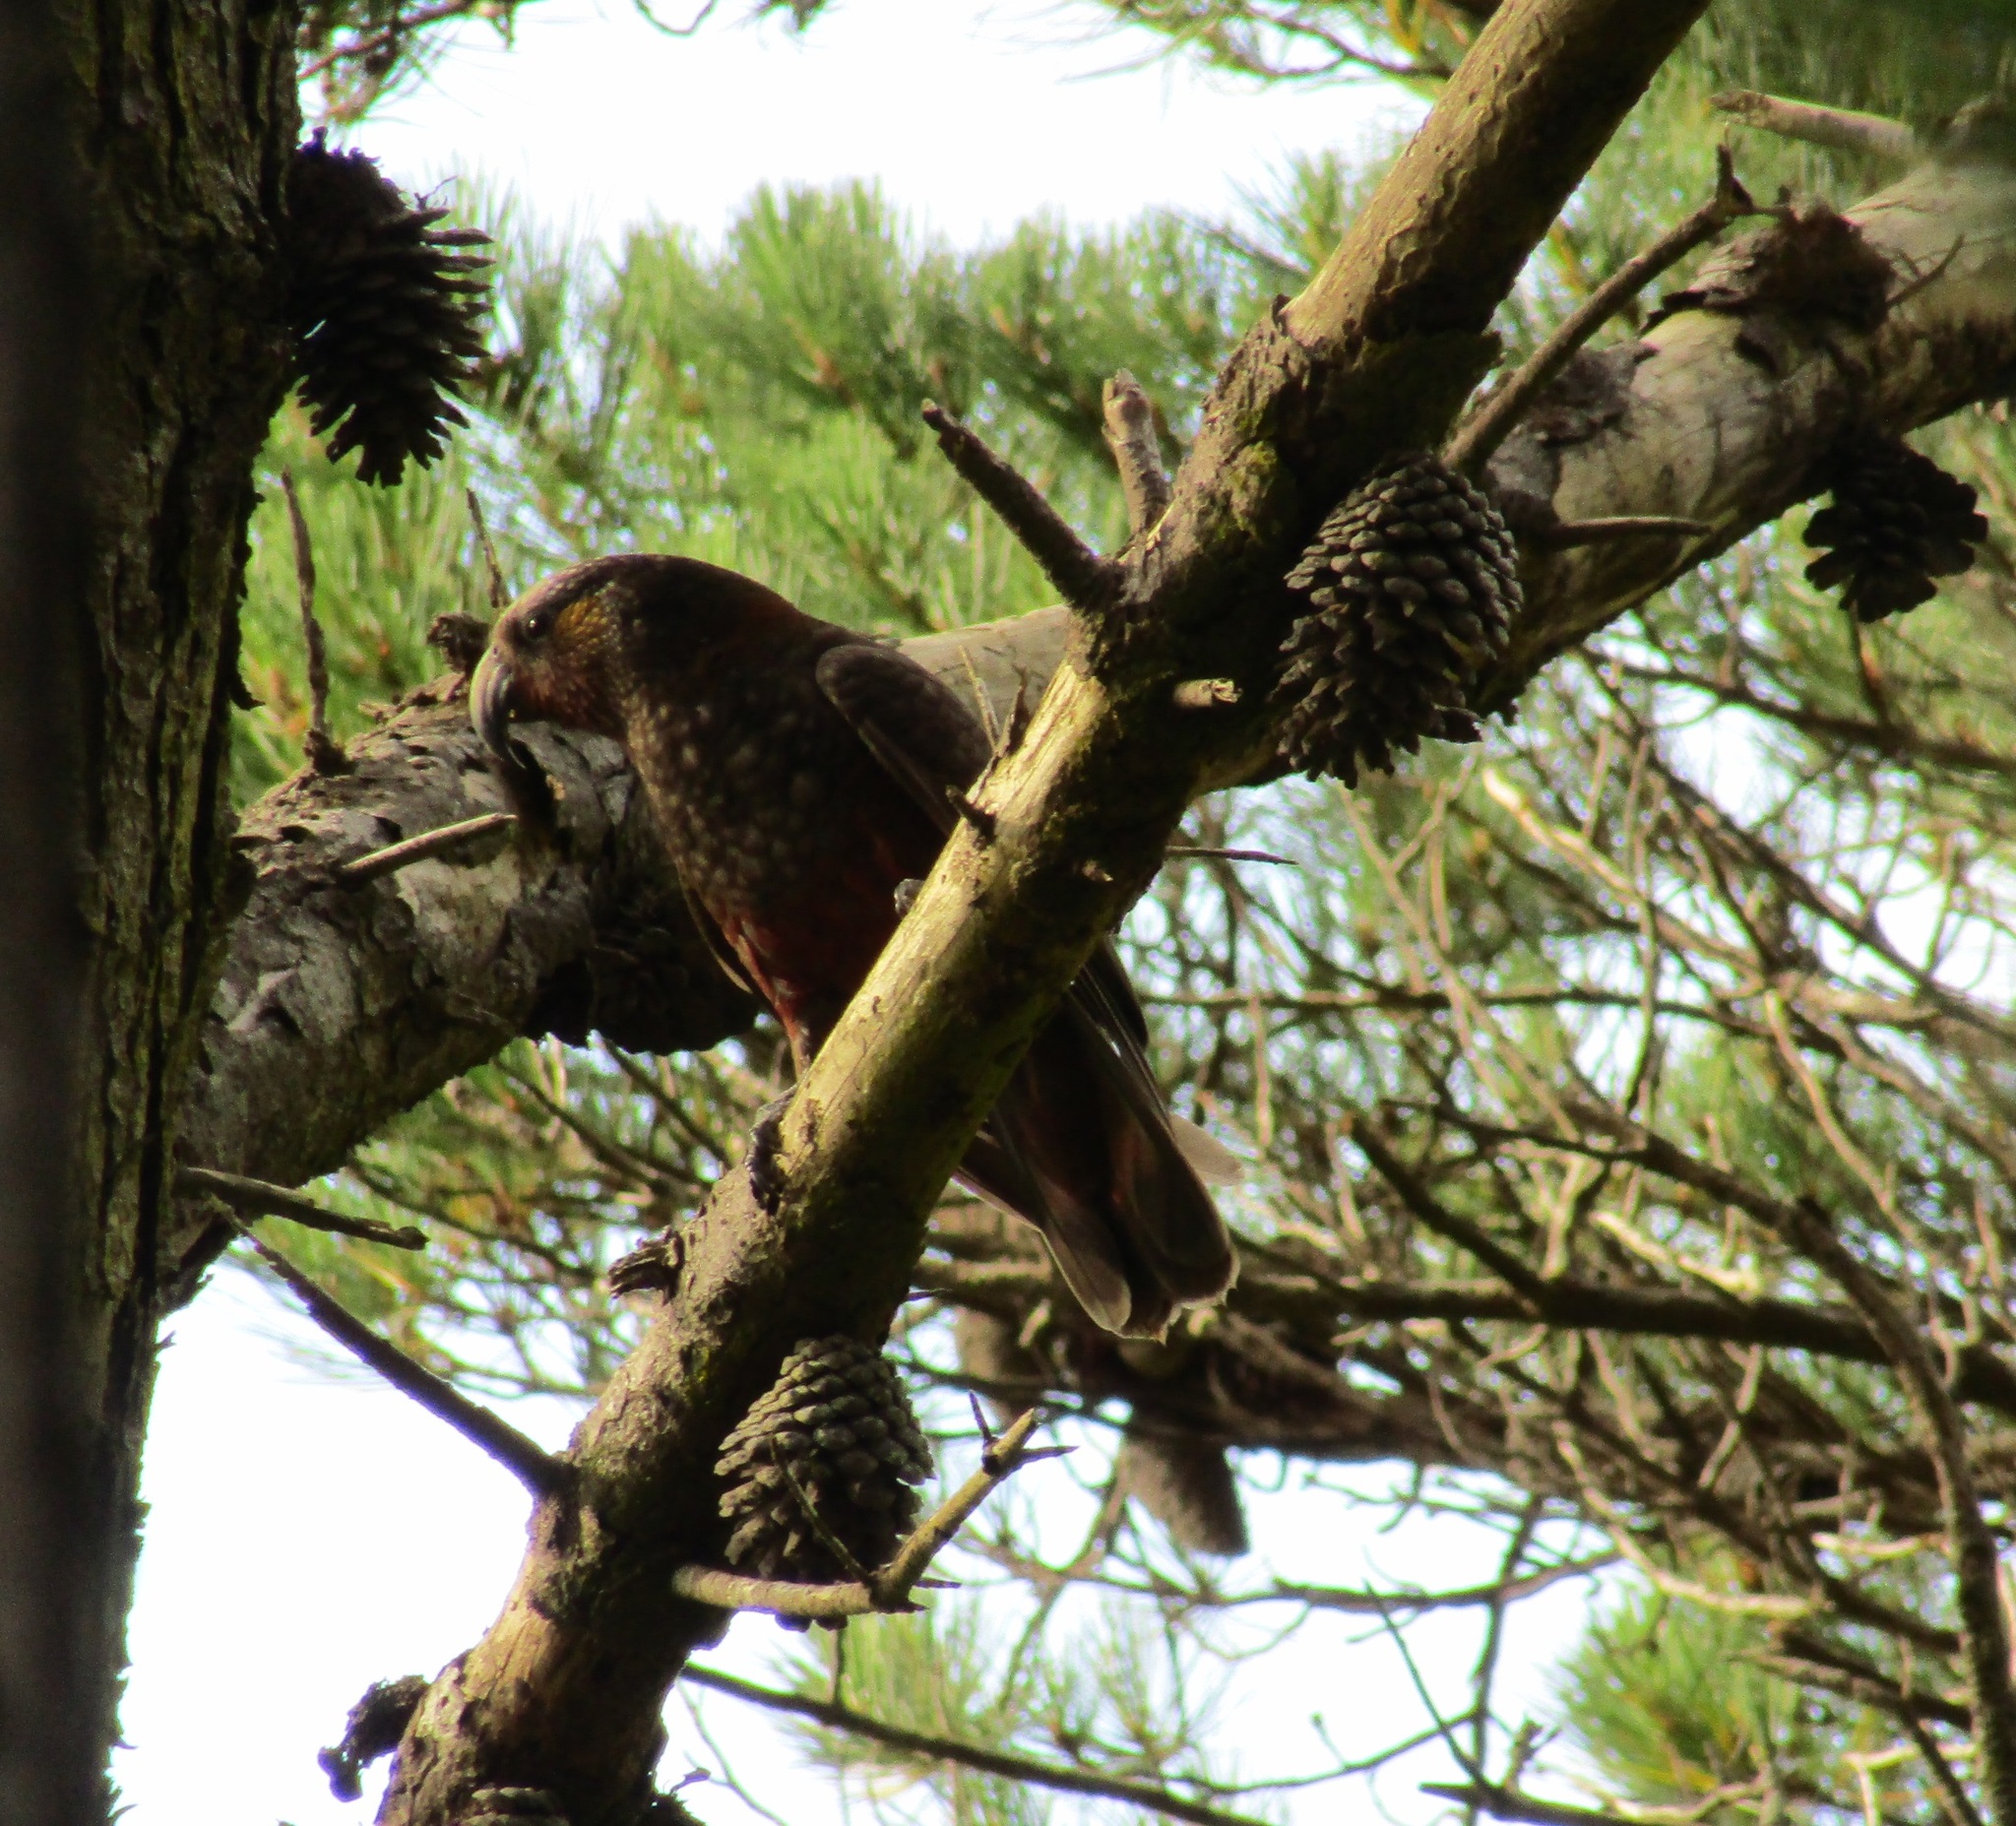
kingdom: Animalia
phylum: Chordata
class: Aves
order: Psittaciformes
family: Psittacidae
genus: Nestor
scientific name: Nestor meridionalis
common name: New zealand kaka
